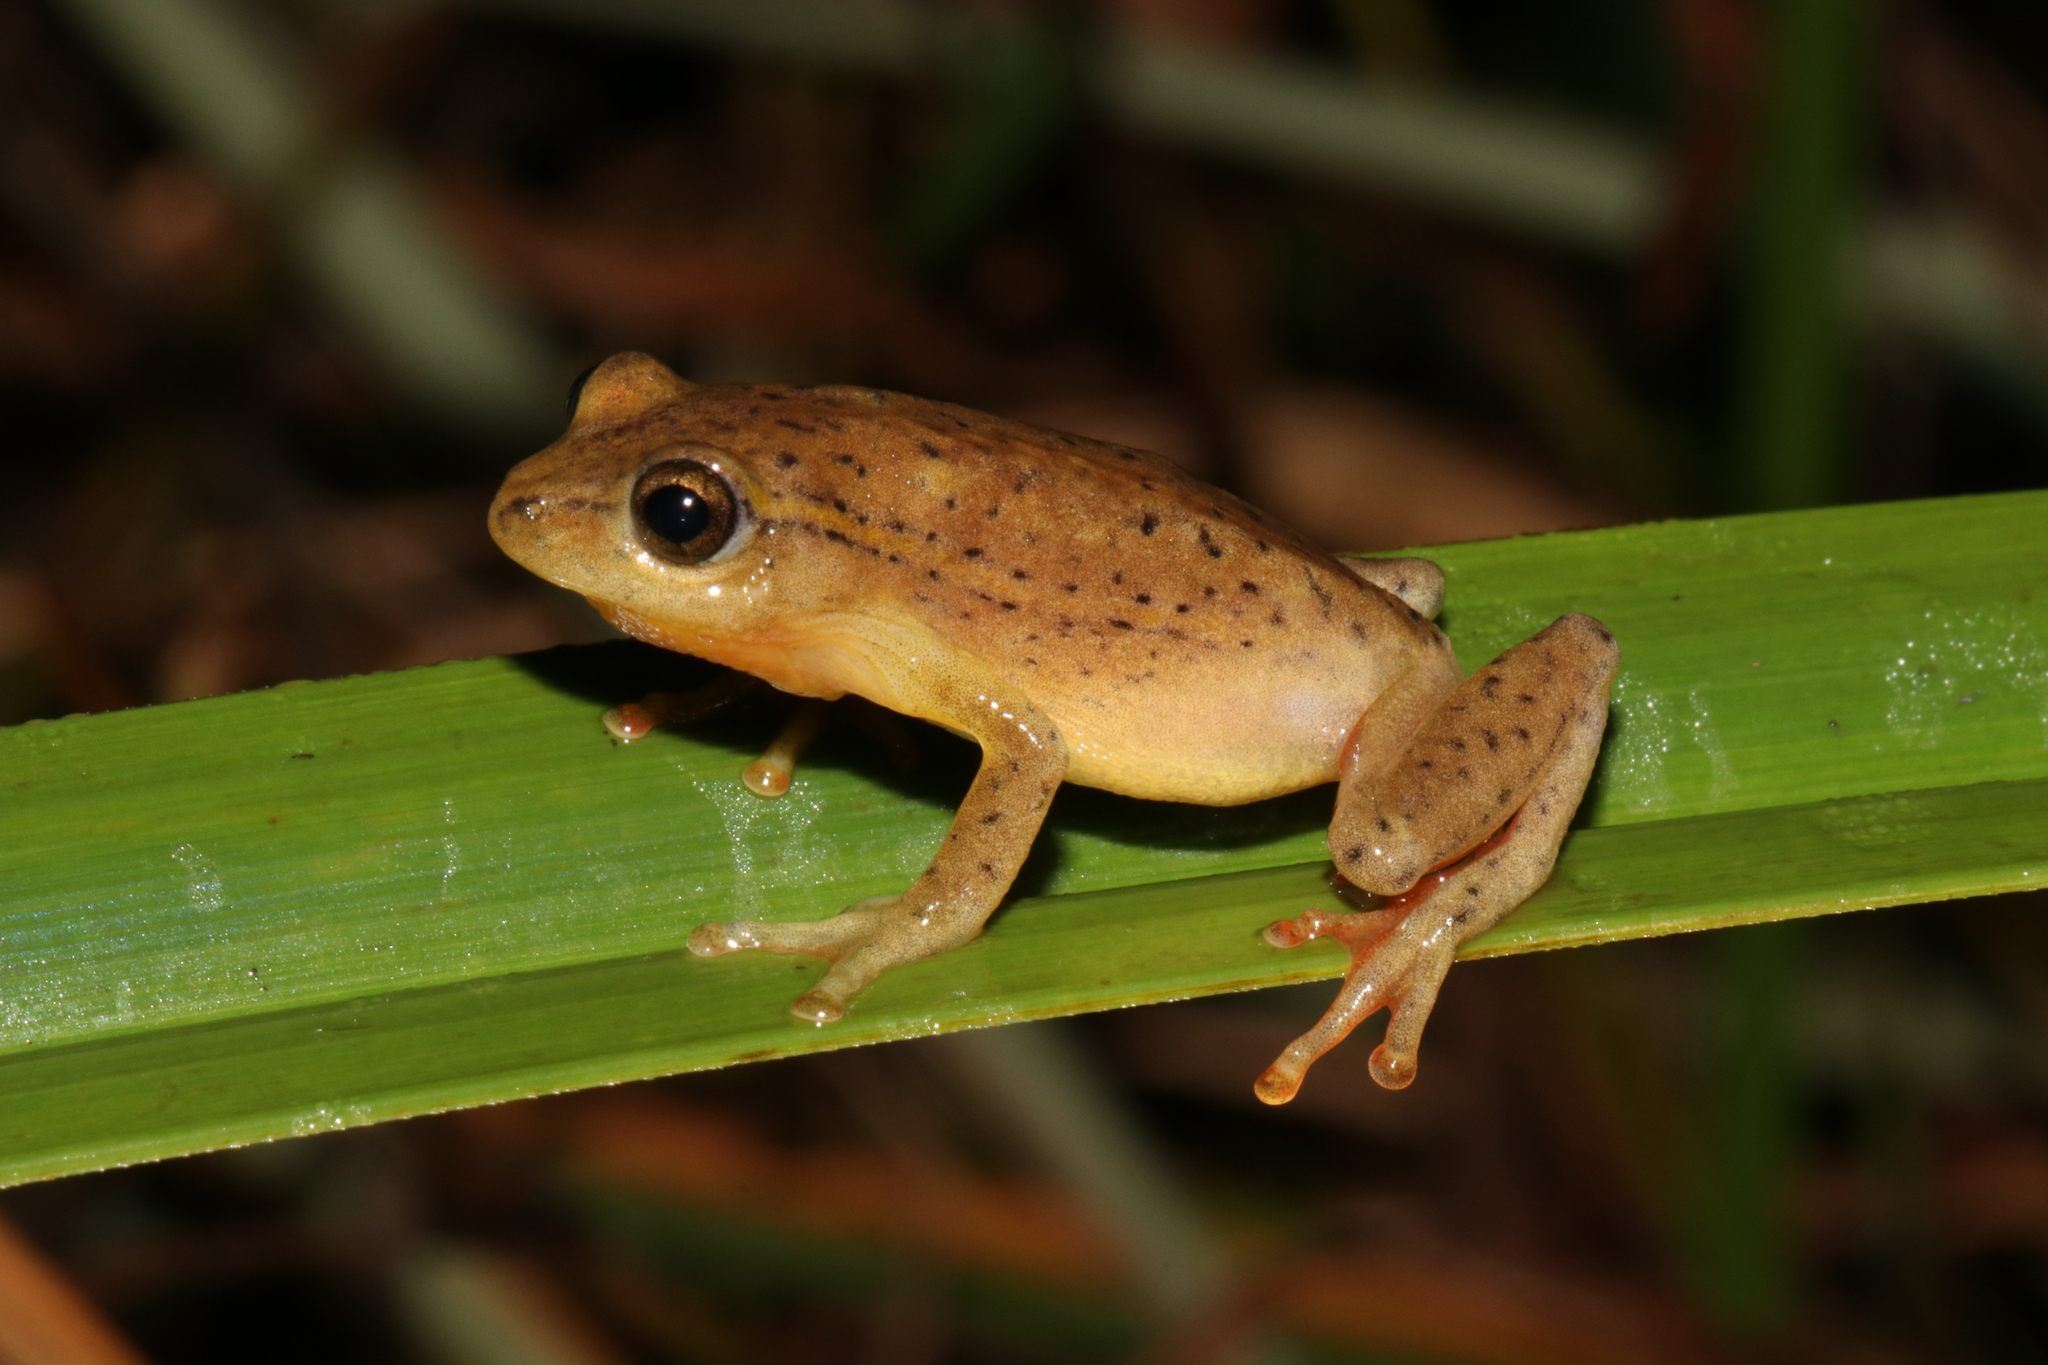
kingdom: Animalia
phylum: Chordata
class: Amphibia
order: Anura
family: Hyperoliidae
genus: Hyperolius
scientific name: Hyperolius substriatus
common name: Spotted reed frog
